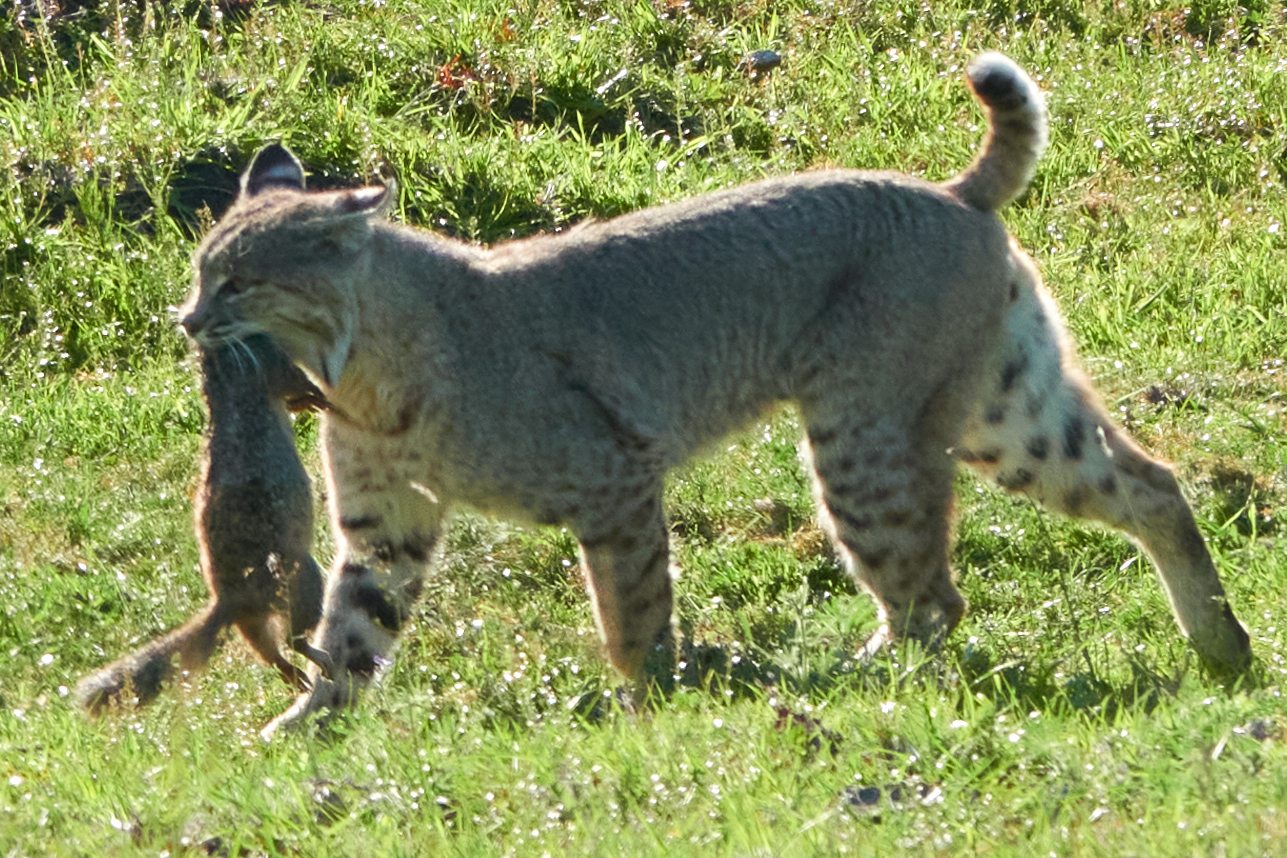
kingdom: Animalia
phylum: Chordata
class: Mammalia
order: Carnivora
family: Felidae
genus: Lynx
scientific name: Lynx rufus
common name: Bobcat
